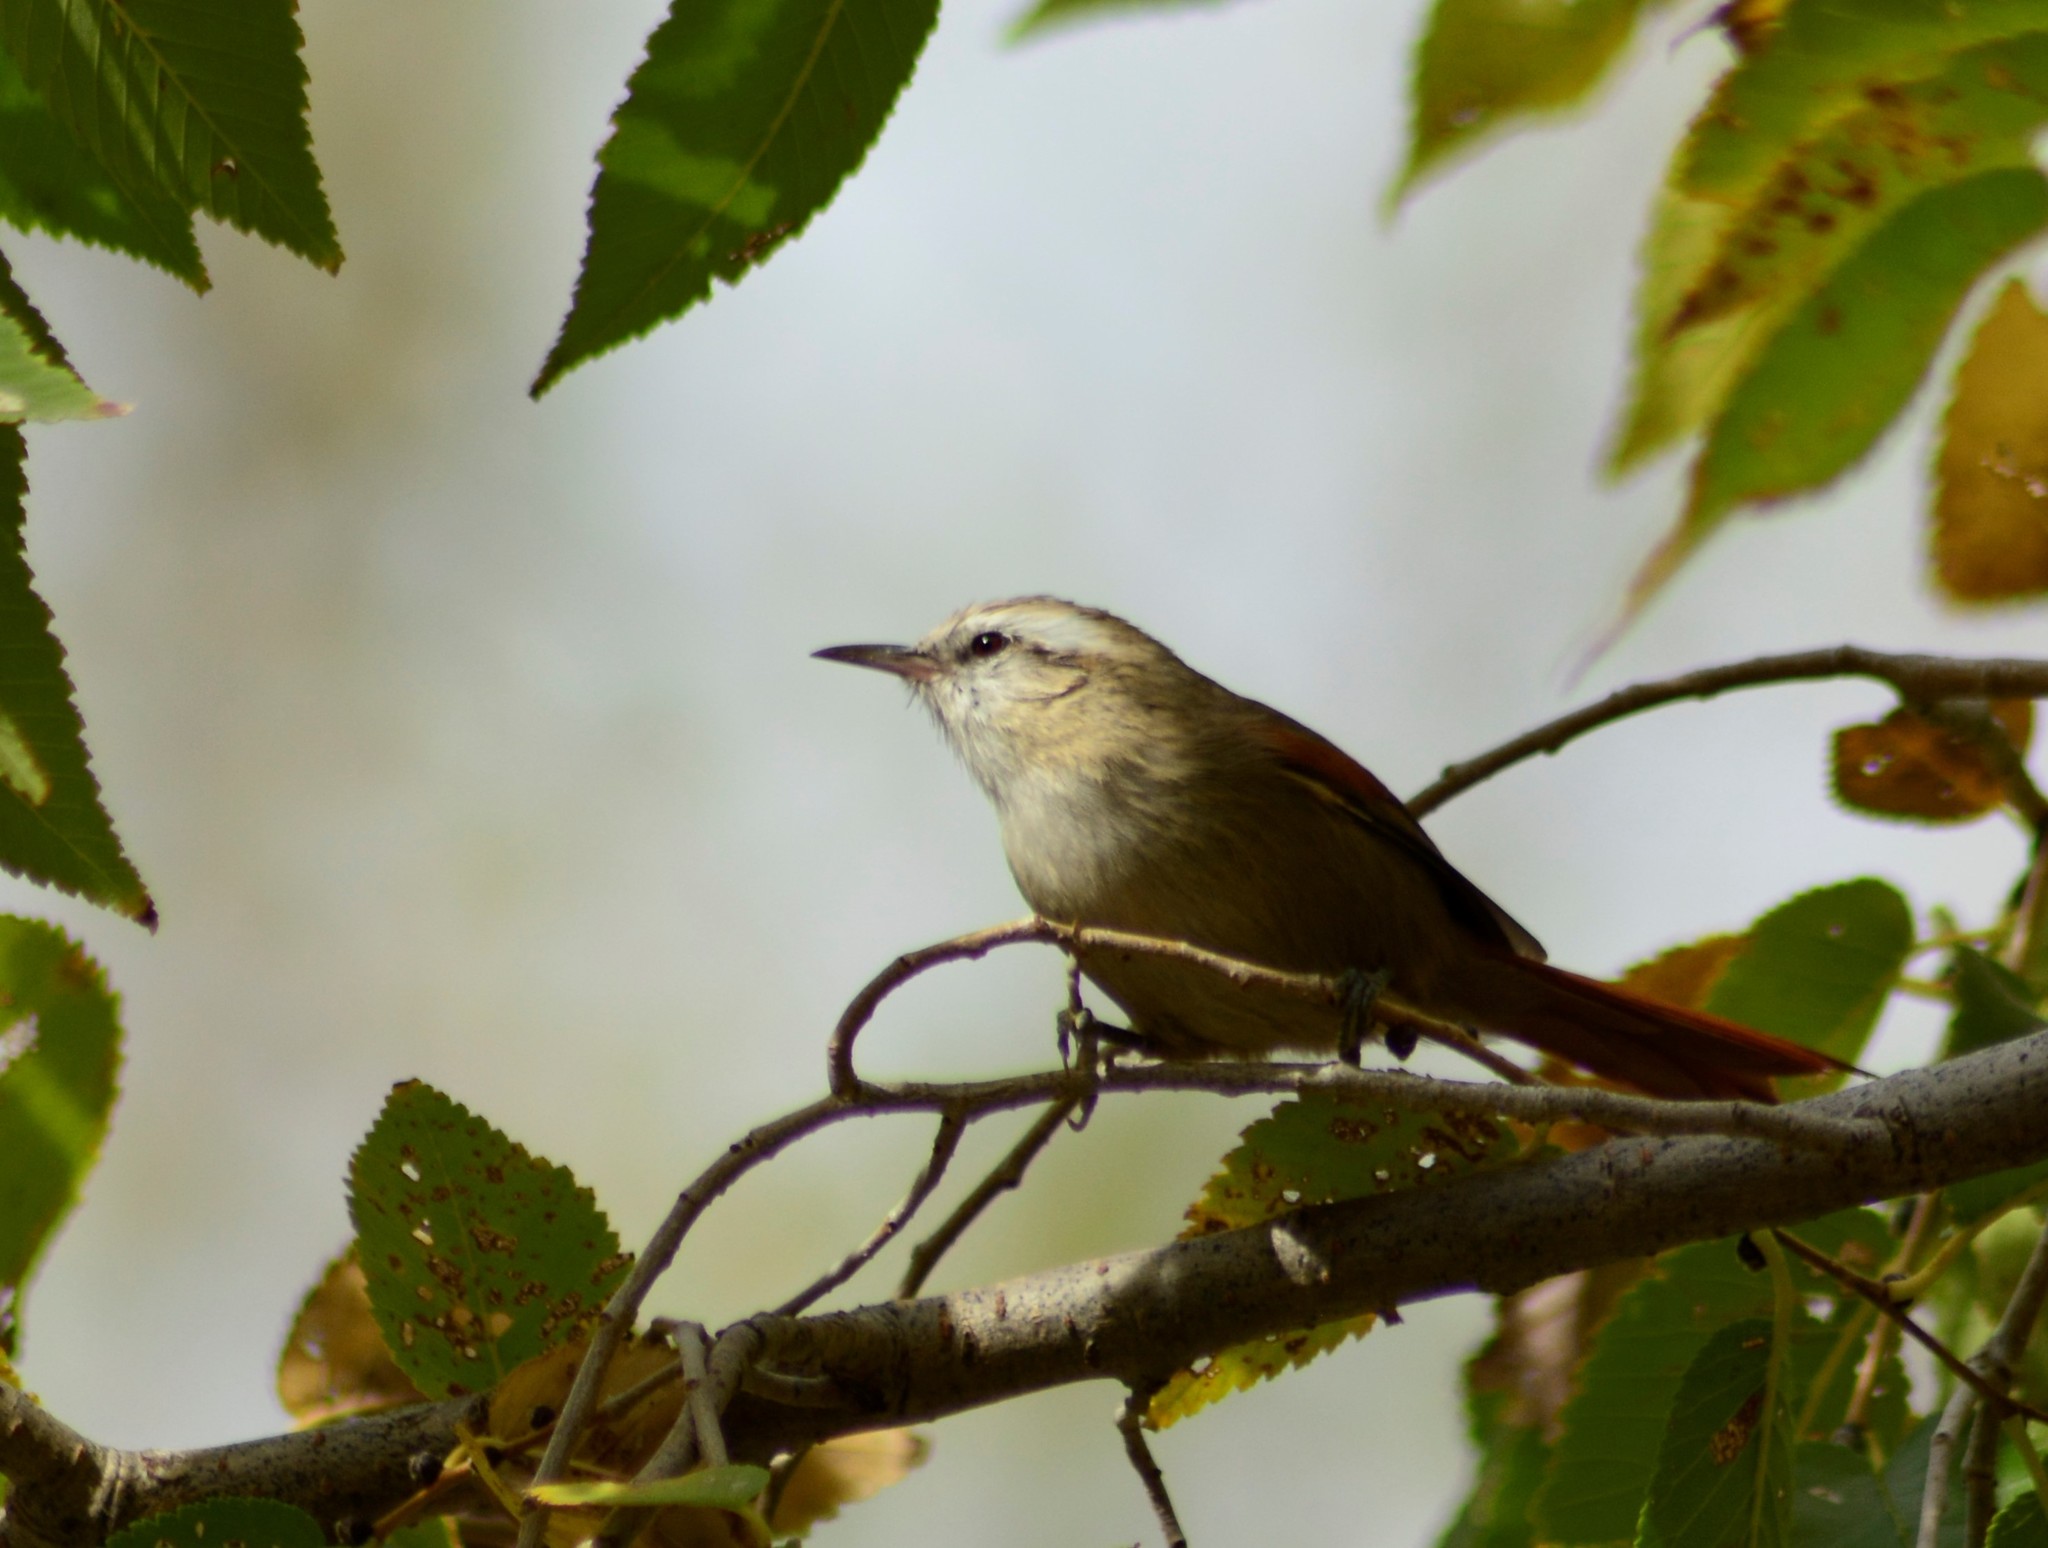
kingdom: Animalia
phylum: Chordata
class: Aves
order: Passeriformes
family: Furnariidae
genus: Cranioleuca
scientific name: Cranioleuca pyrrhophia
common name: Stripe-crowned spinetail
